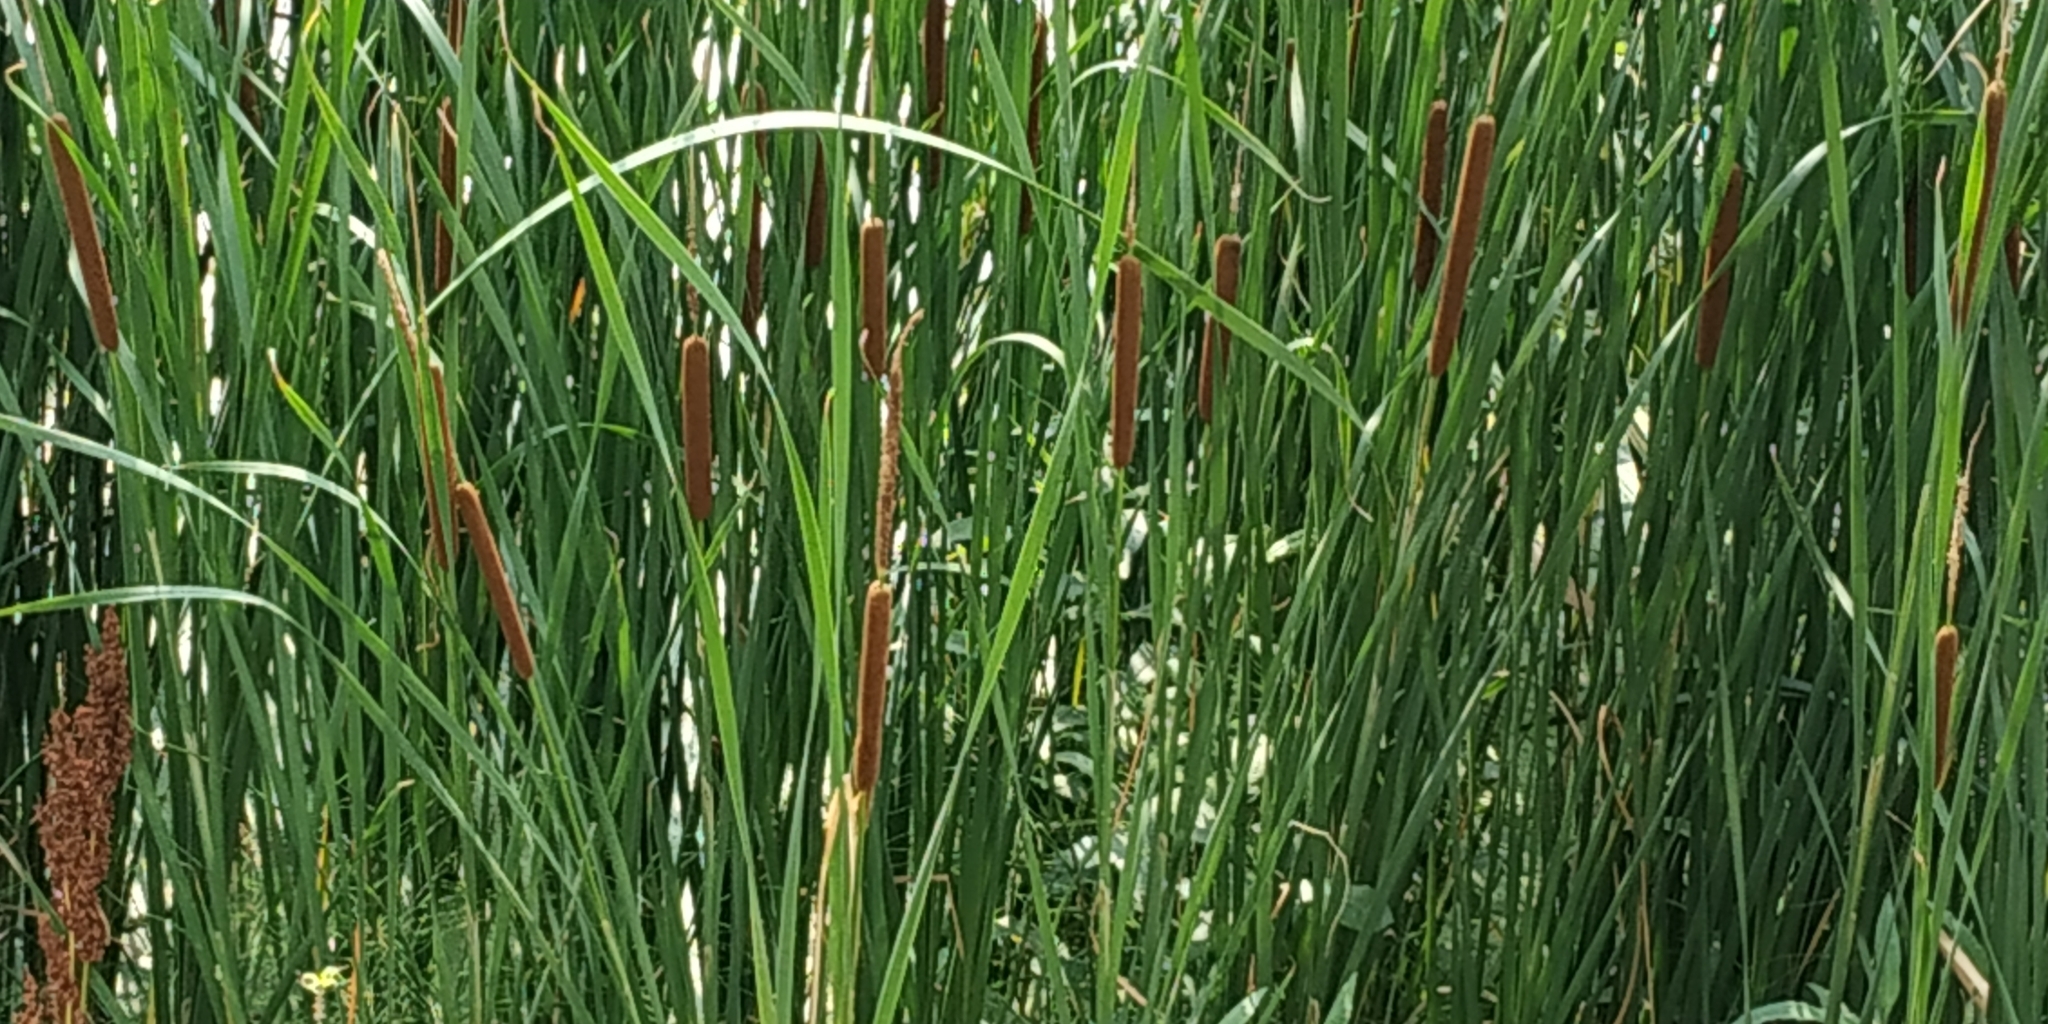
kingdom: Plantae
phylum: Tracheophyta
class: Liliopsida
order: Poales
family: Typhaceae
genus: Typha
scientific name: Typha linnaei
